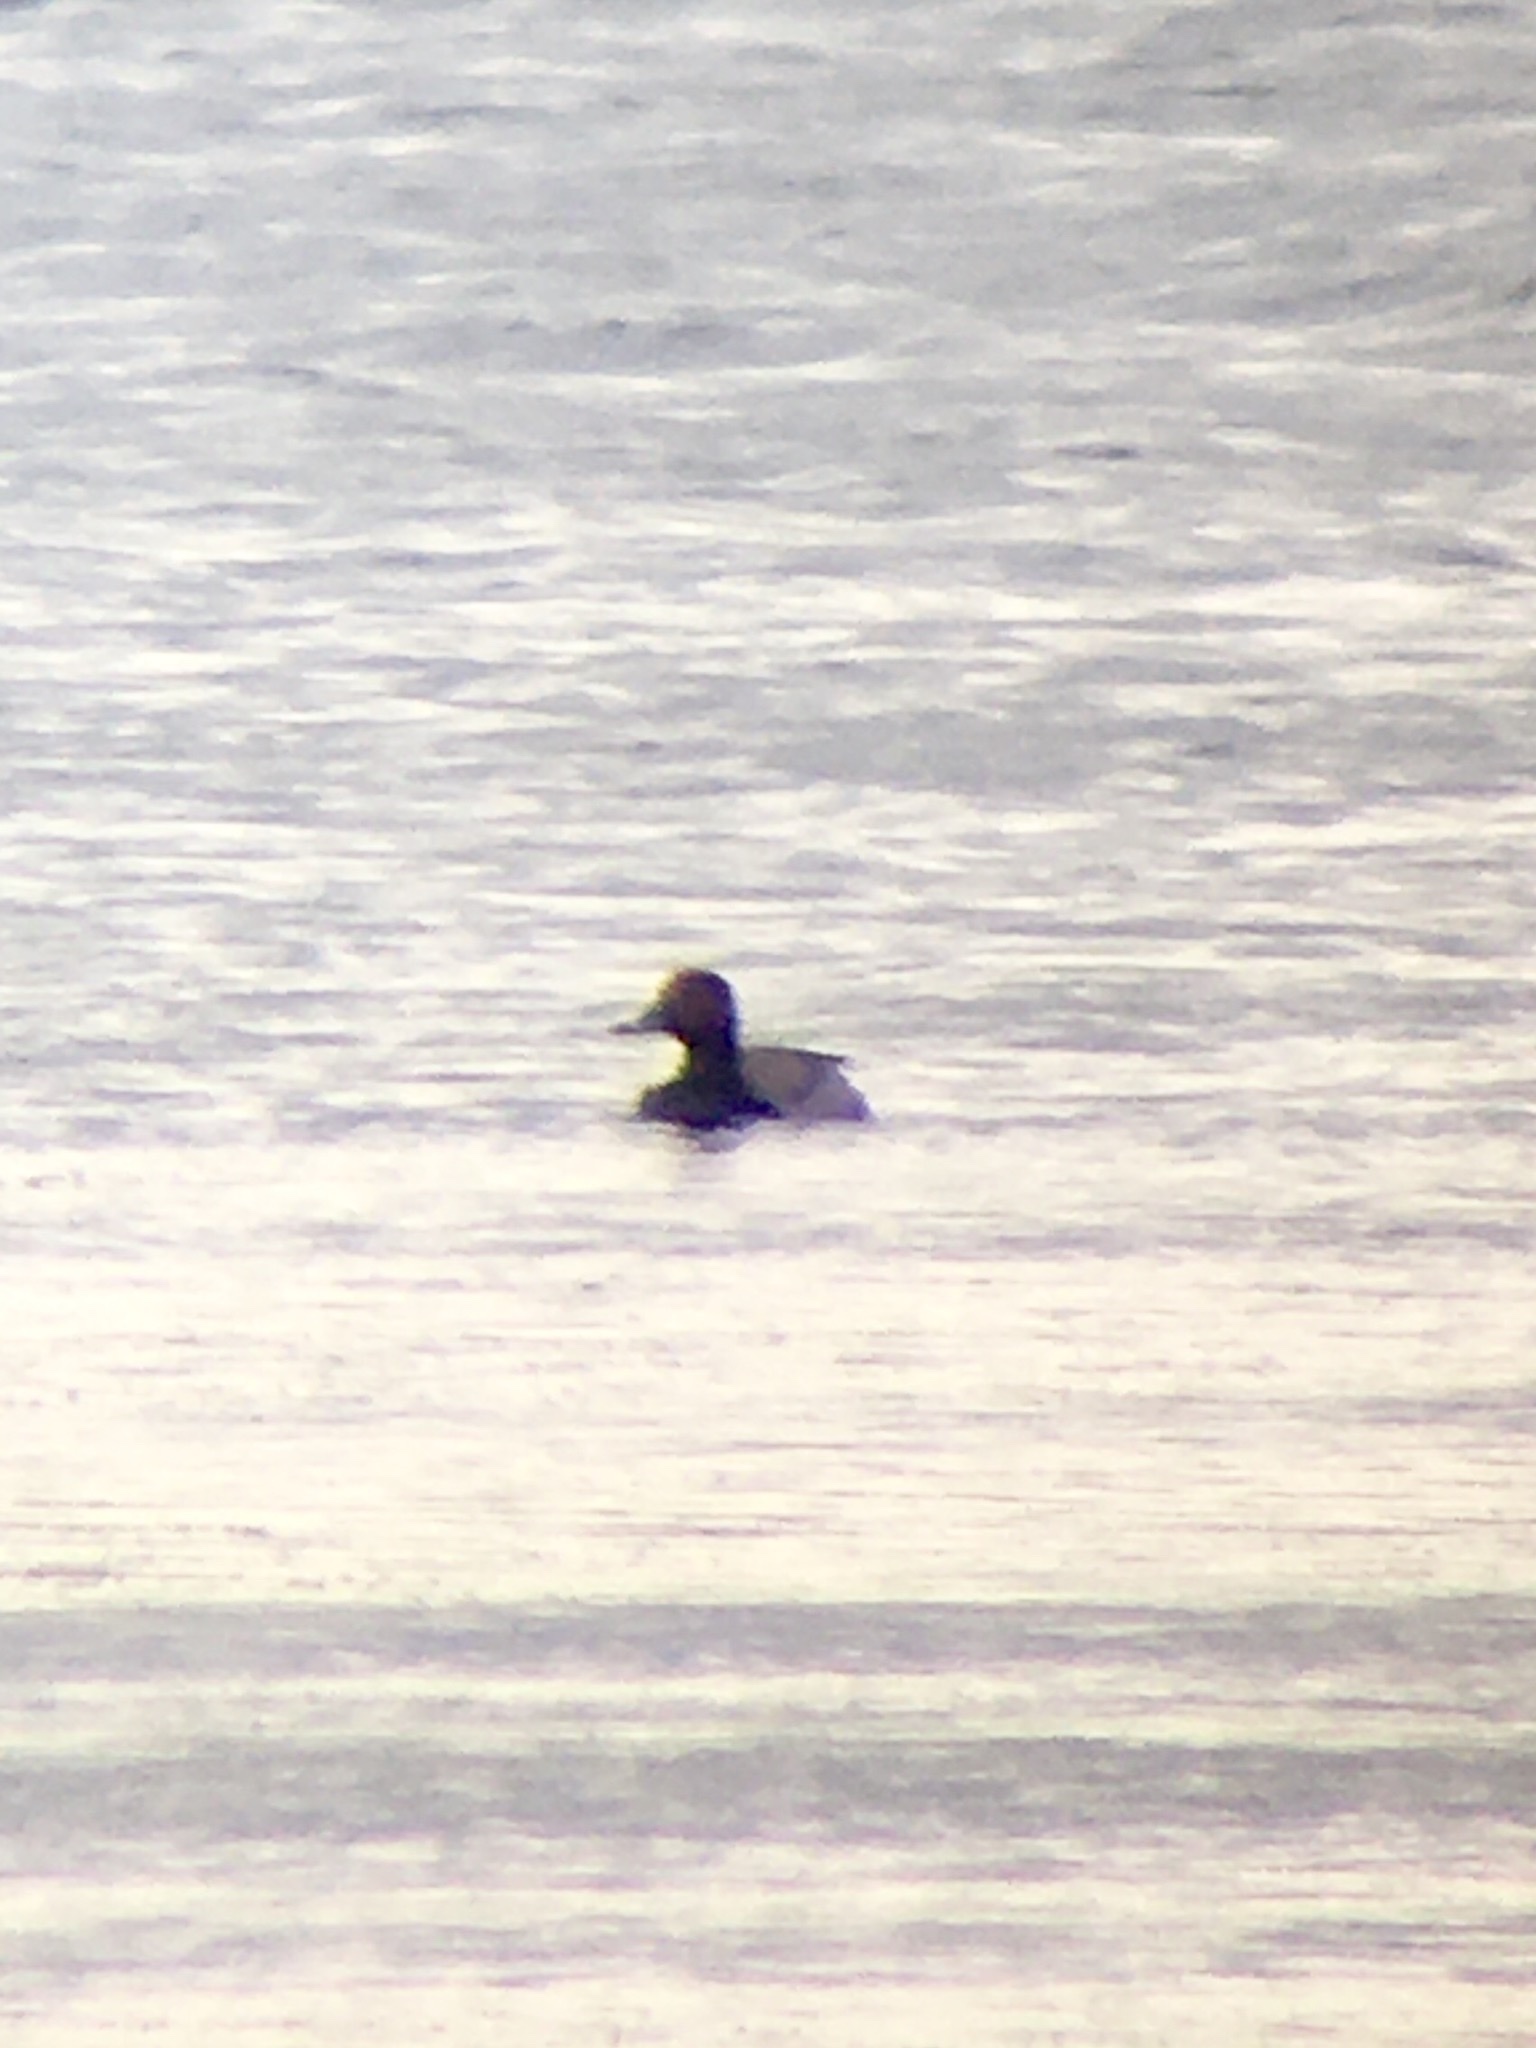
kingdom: Animalia
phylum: Chordata
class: Aves
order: Anseriformes
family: Anatidae
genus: Aythya
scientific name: Aythya americana
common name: Redhead
